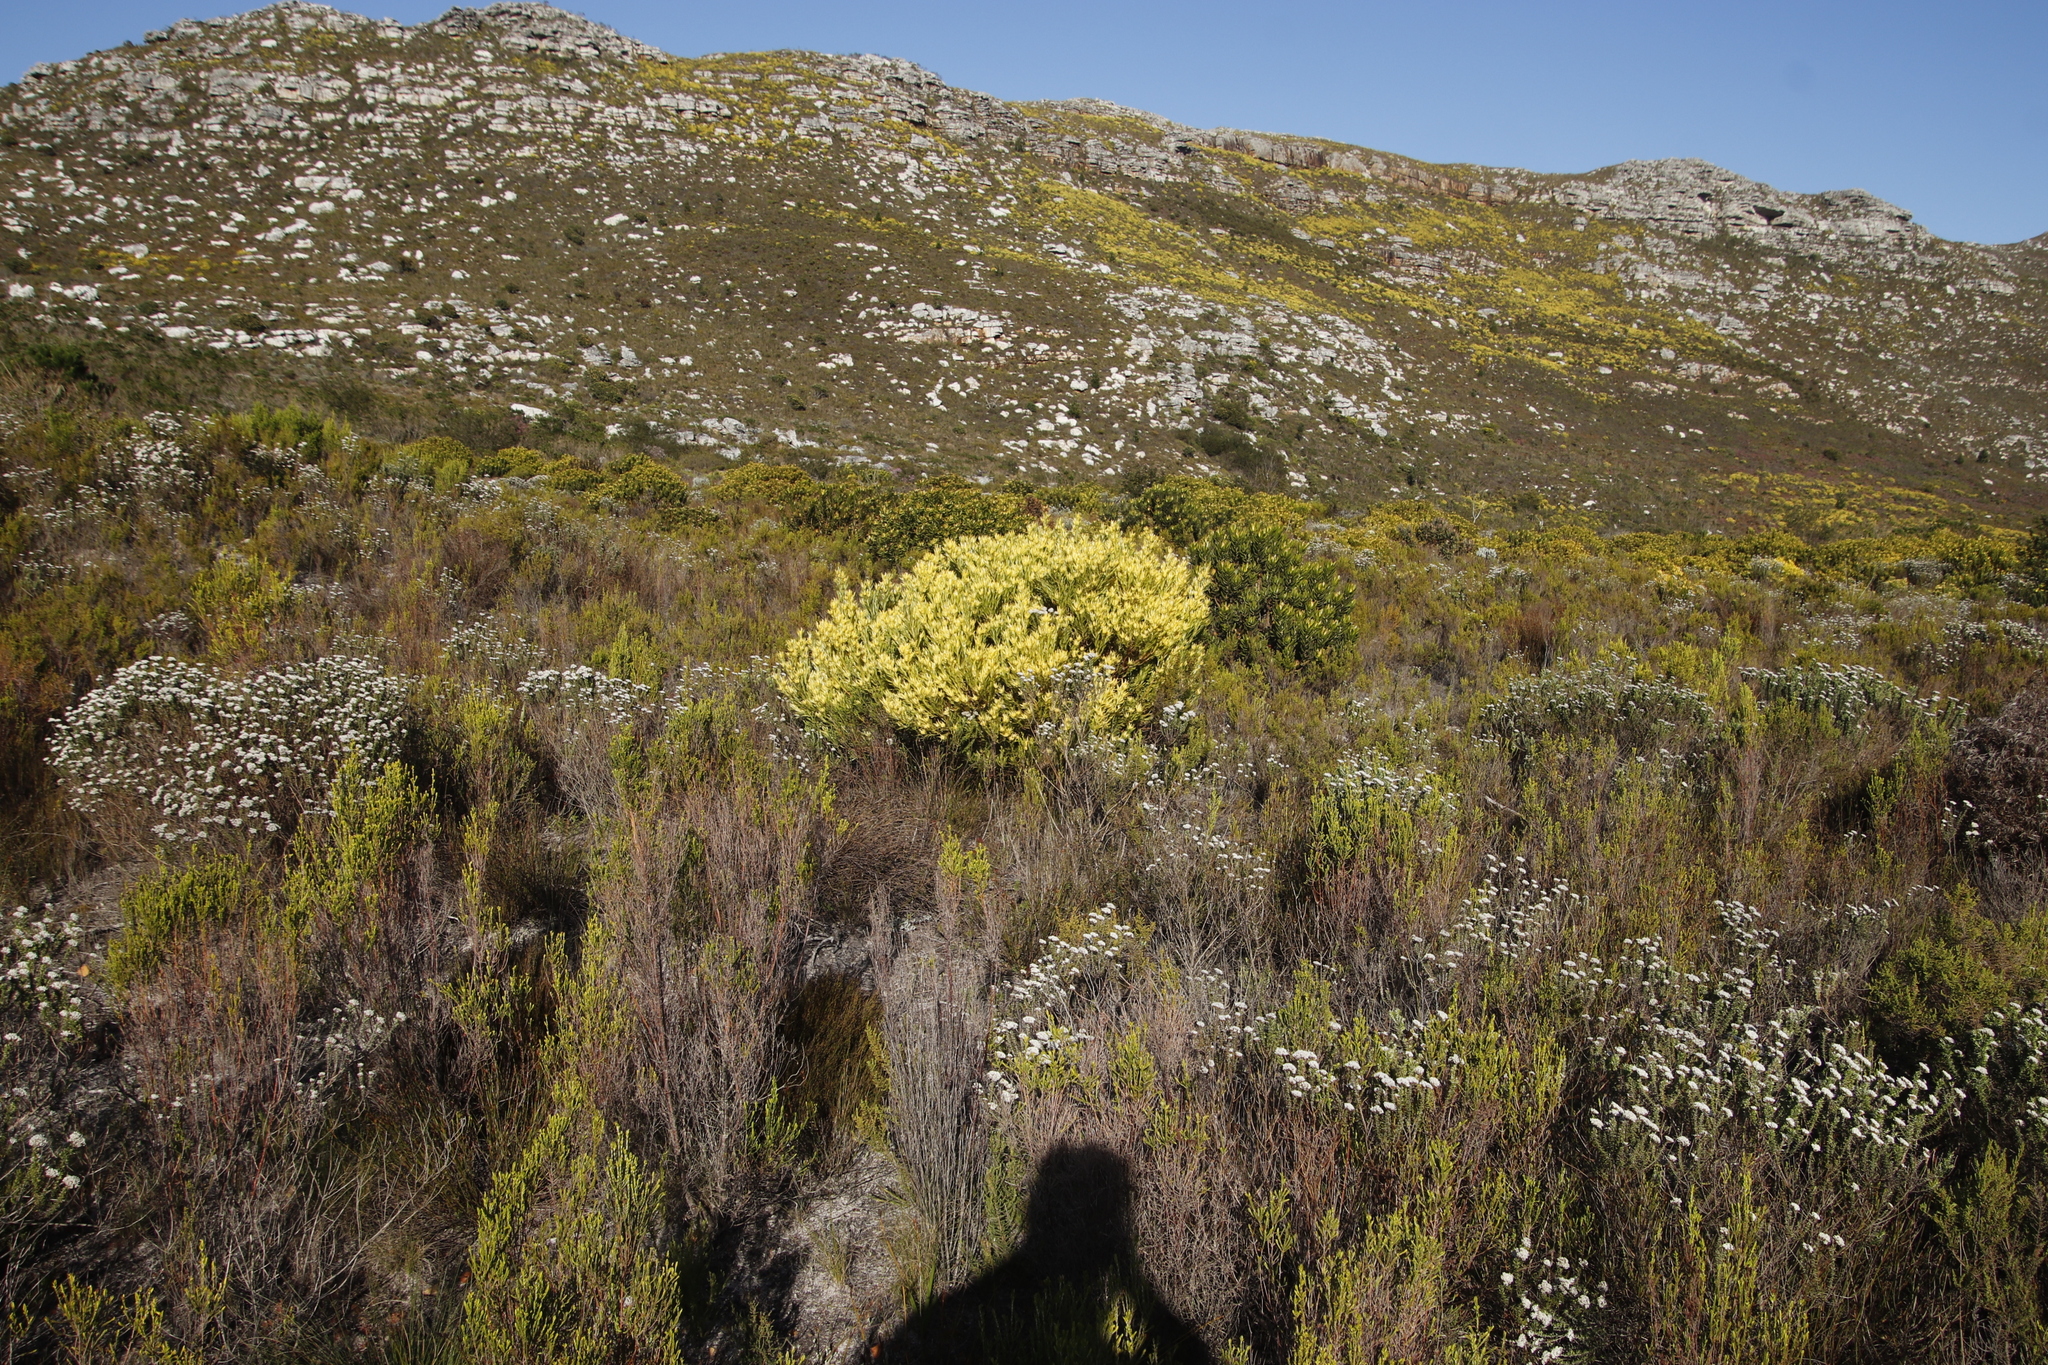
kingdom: Plantae
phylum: Tracheophyta
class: Magnoliopsida
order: Proteales
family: Proteaceae
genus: Leucadendron
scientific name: Leucadendron xanthoconus
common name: Sickle-leaf conebush
